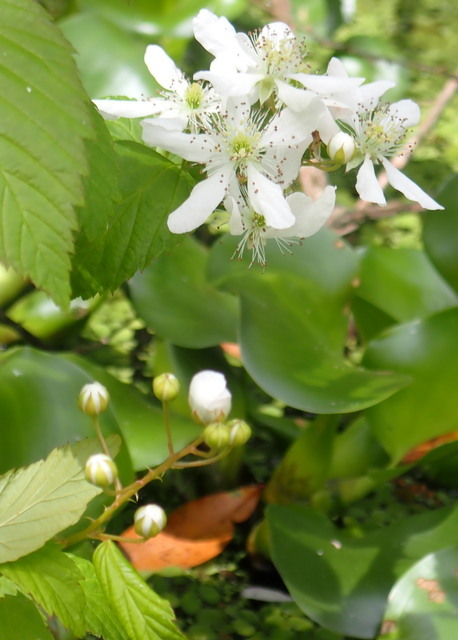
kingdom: Plantae
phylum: Tracheophyta
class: Magnoliopsida
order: Rosales
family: Rosaceae
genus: Rubus
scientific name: Rubus pensilvanicus
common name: Pennsylvania blackberry
